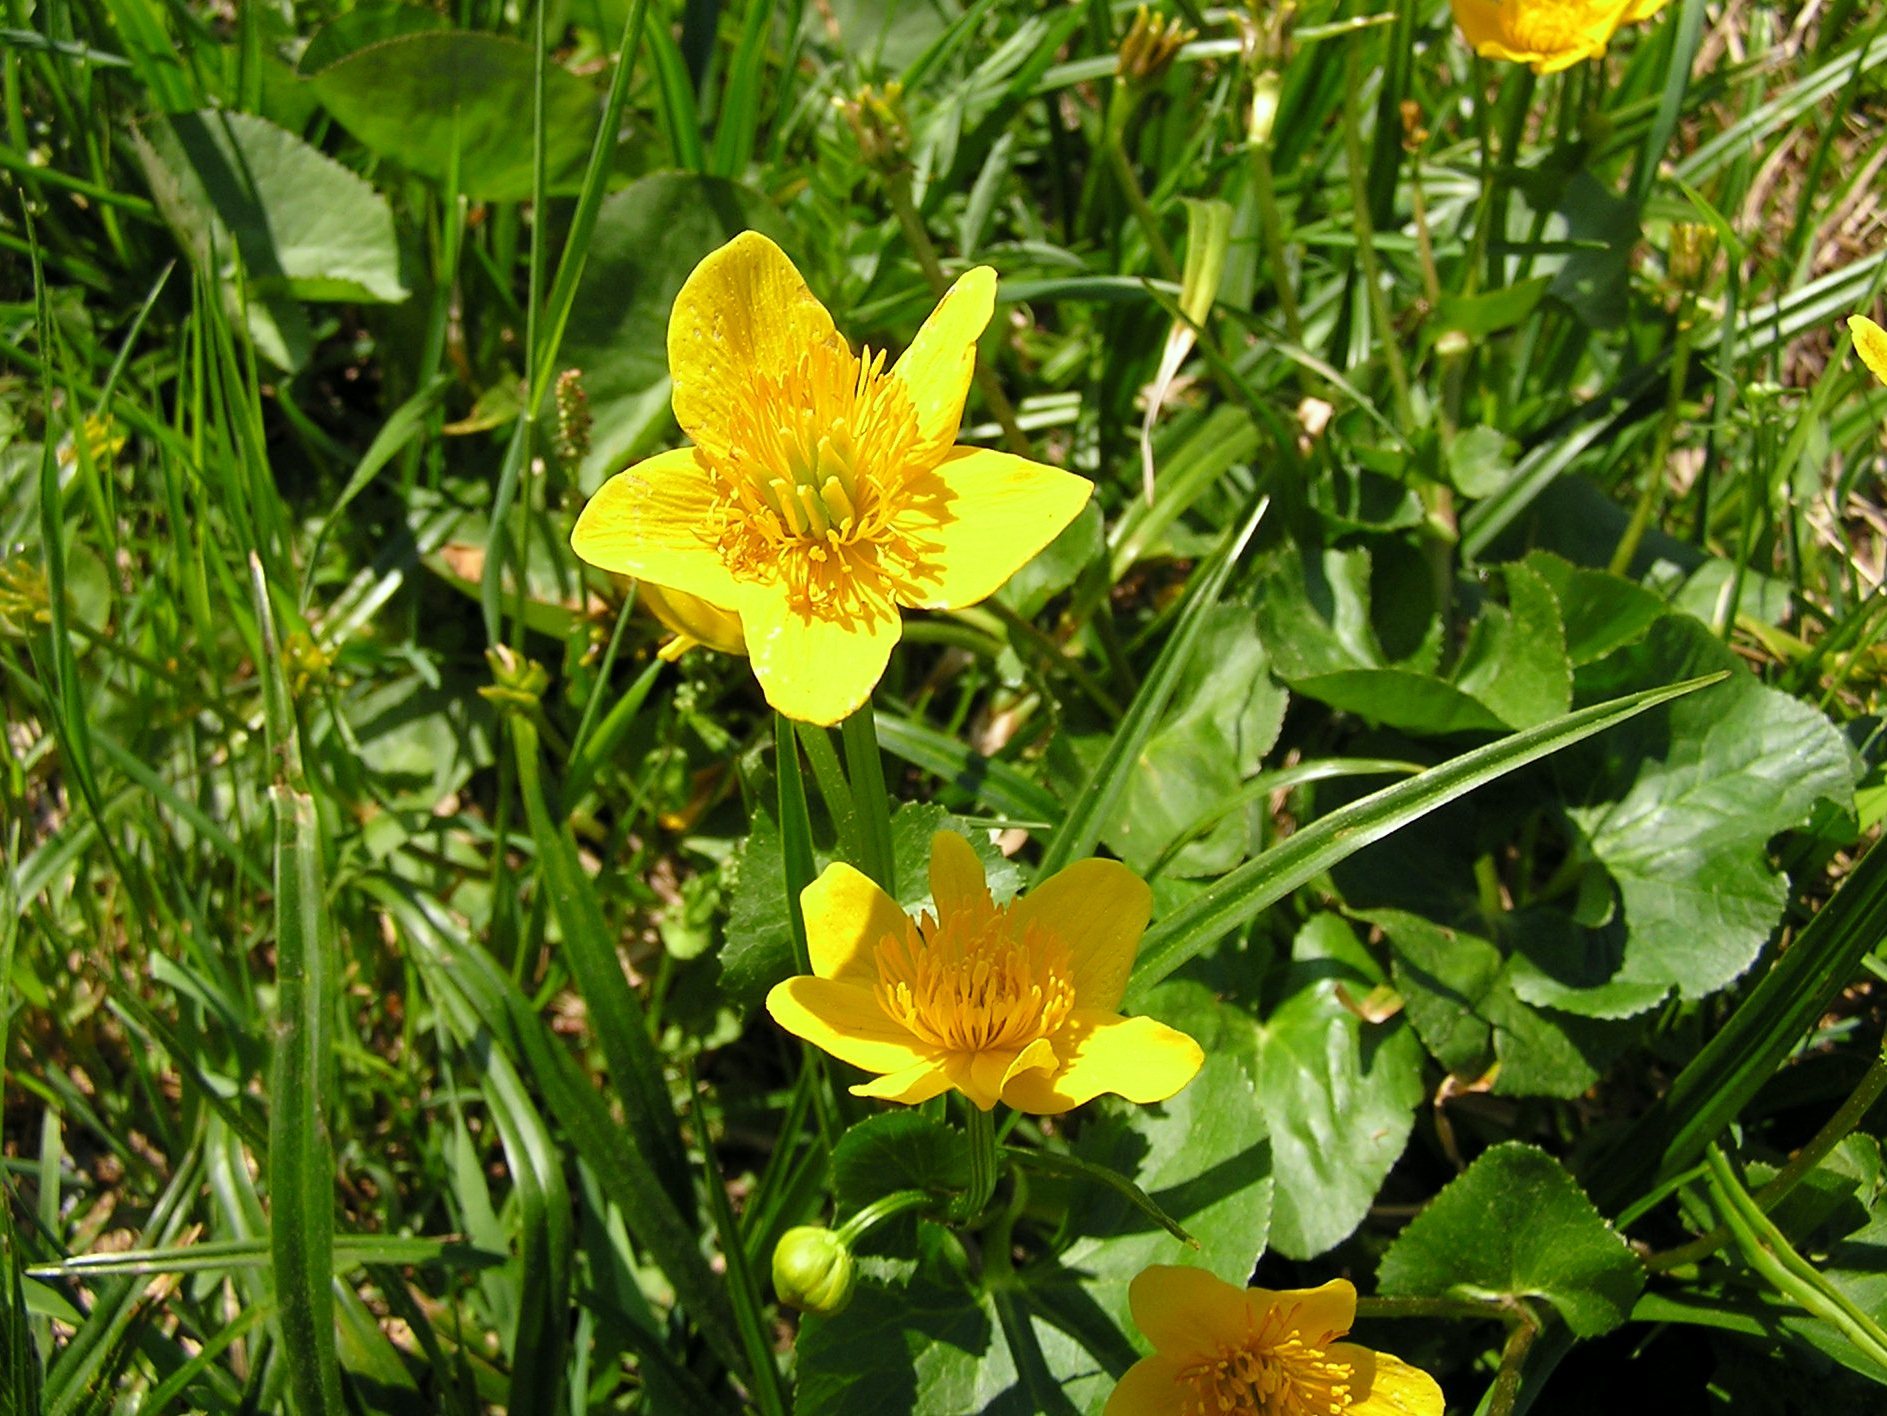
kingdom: Plantae
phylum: Tracheophyta
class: Magnoliopsida
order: Ranunculales
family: Ranunculaceae
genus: Caltha
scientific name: Caltha palustris
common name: Marsh marigold
